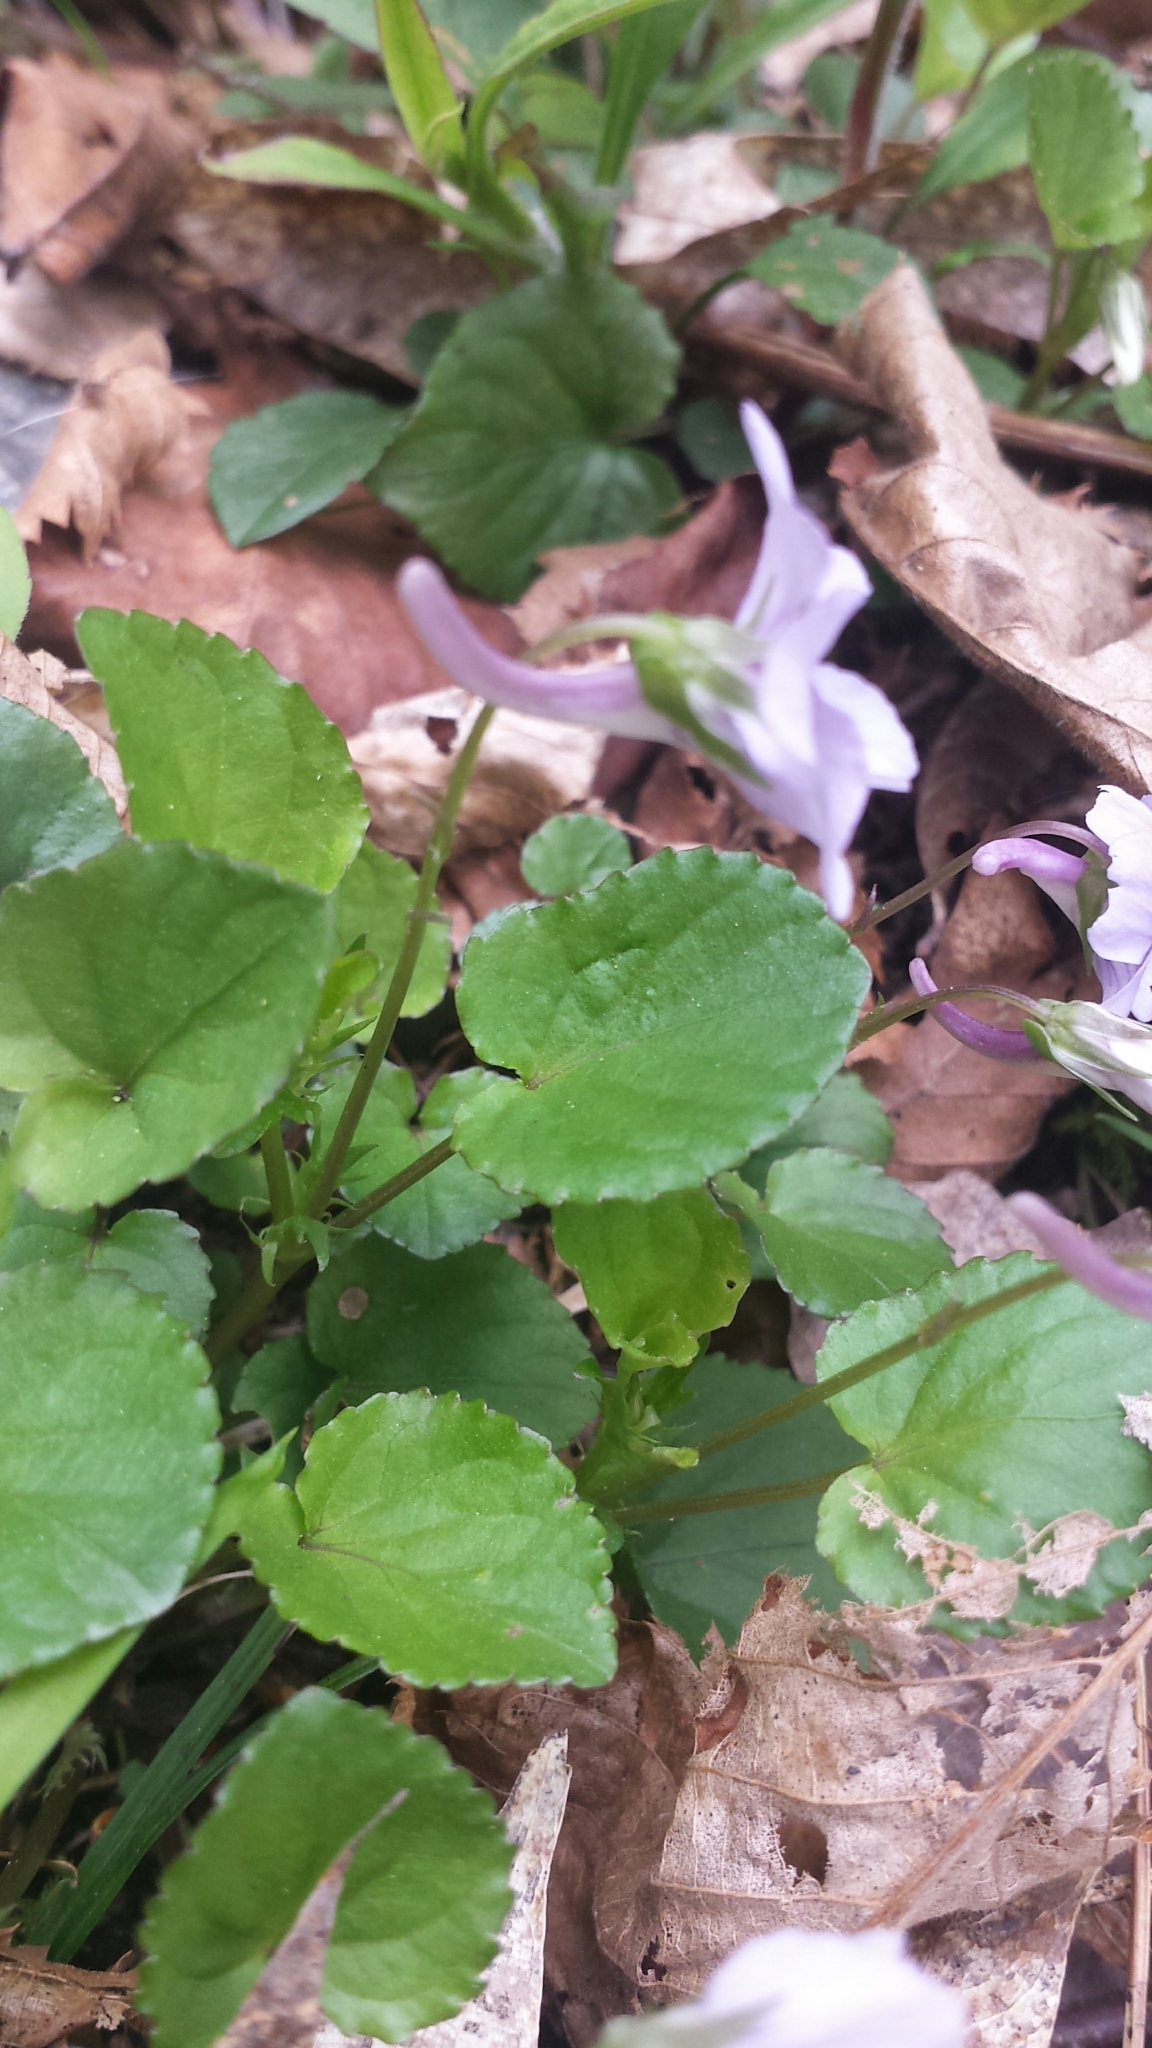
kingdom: Plantae
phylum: Tracheophyta
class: Magnoliopsida
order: Malpighiales
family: Violaceae
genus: Viola
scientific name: Viola rostrata
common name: Long-spur violet
